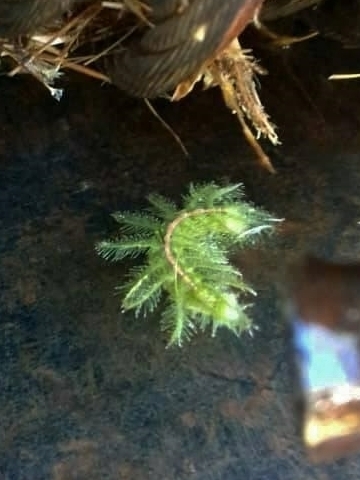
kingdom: Animalia
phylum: Arthropoda
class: Insecta
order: Lepidoptera
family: Nymphalidae
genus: Hamanumida
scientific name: Hamanumida daedalus
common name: Guinea-fowl butterfly
